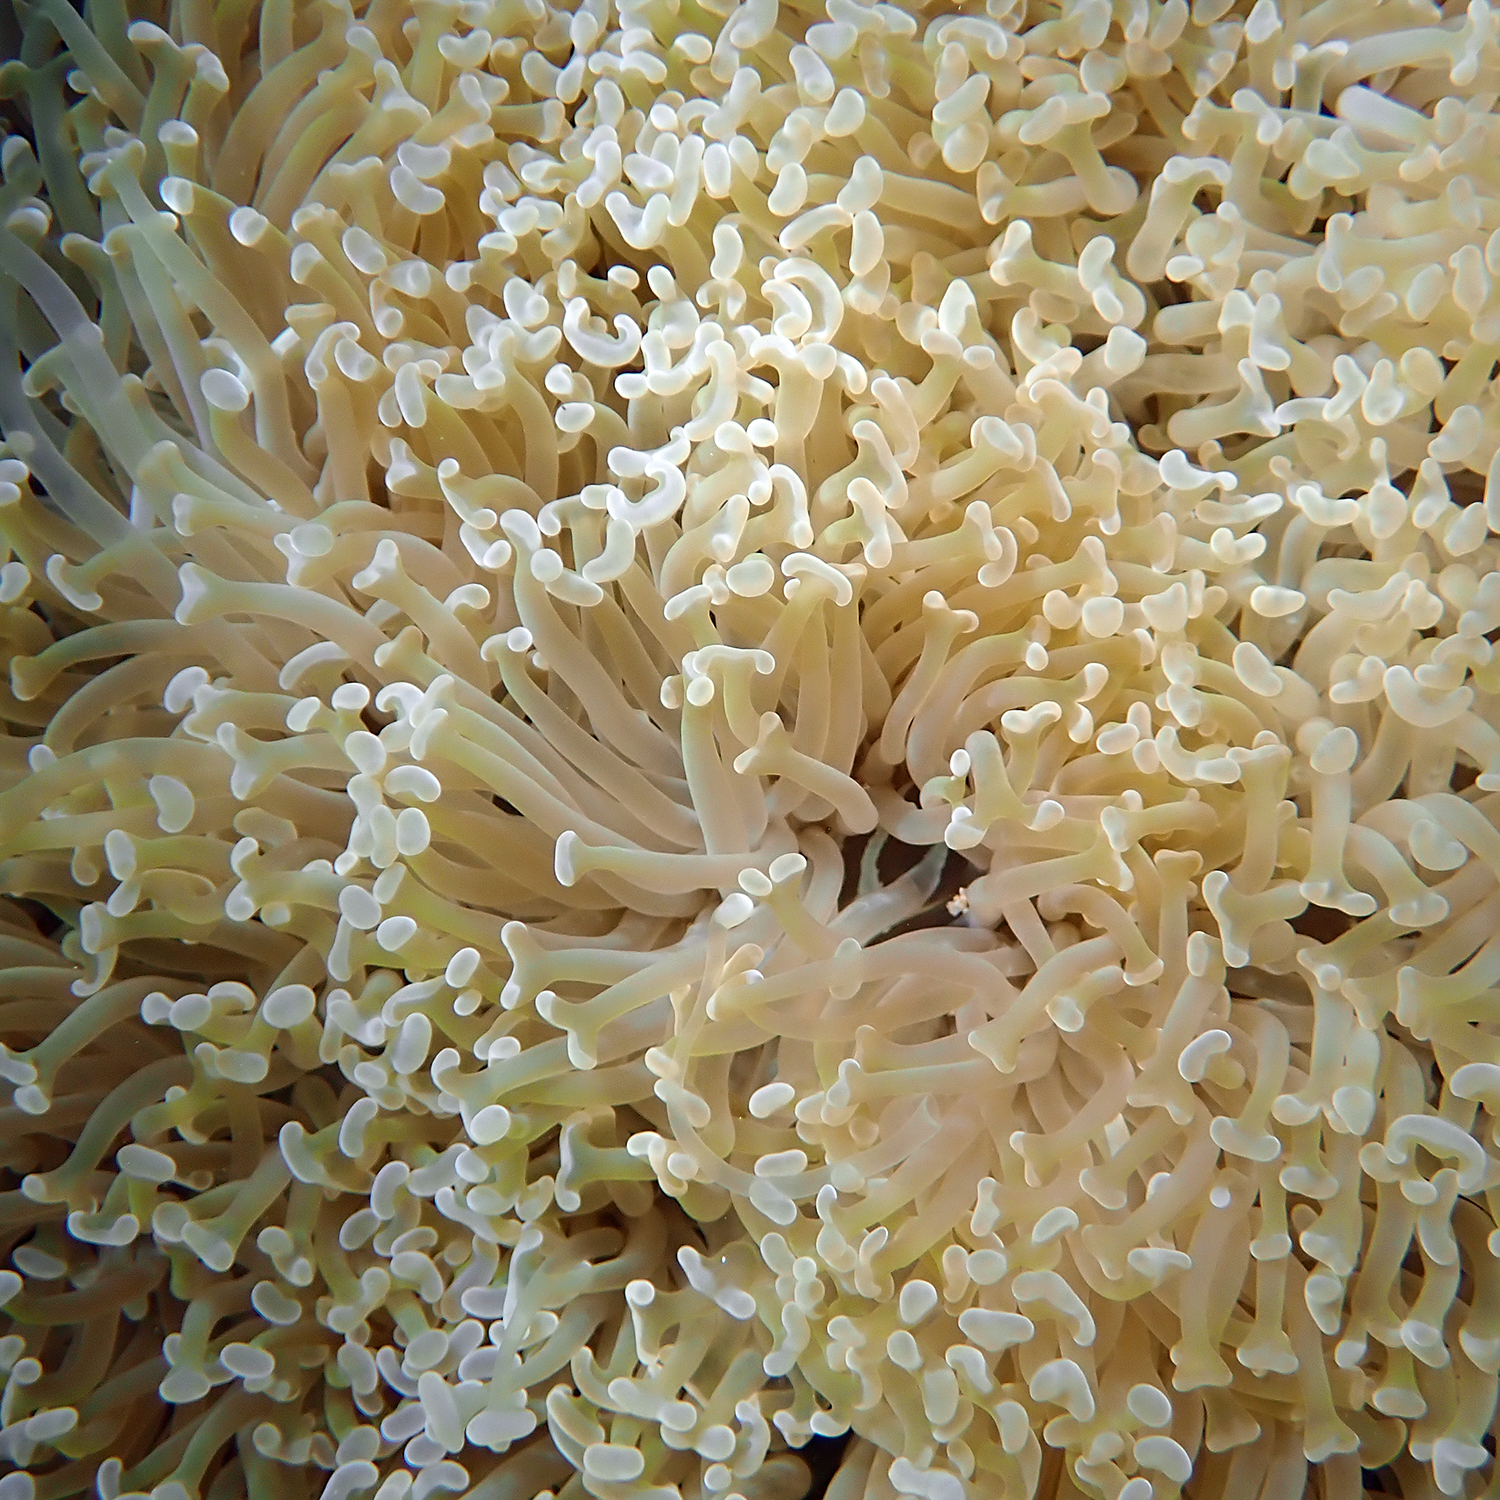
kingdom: Animalia
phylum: Cnidaria
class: Anthozoa
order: Scleractinia
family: Euphylliidae
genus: Fimbriaphyllia
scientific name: Fimbriaphyllia ancora
